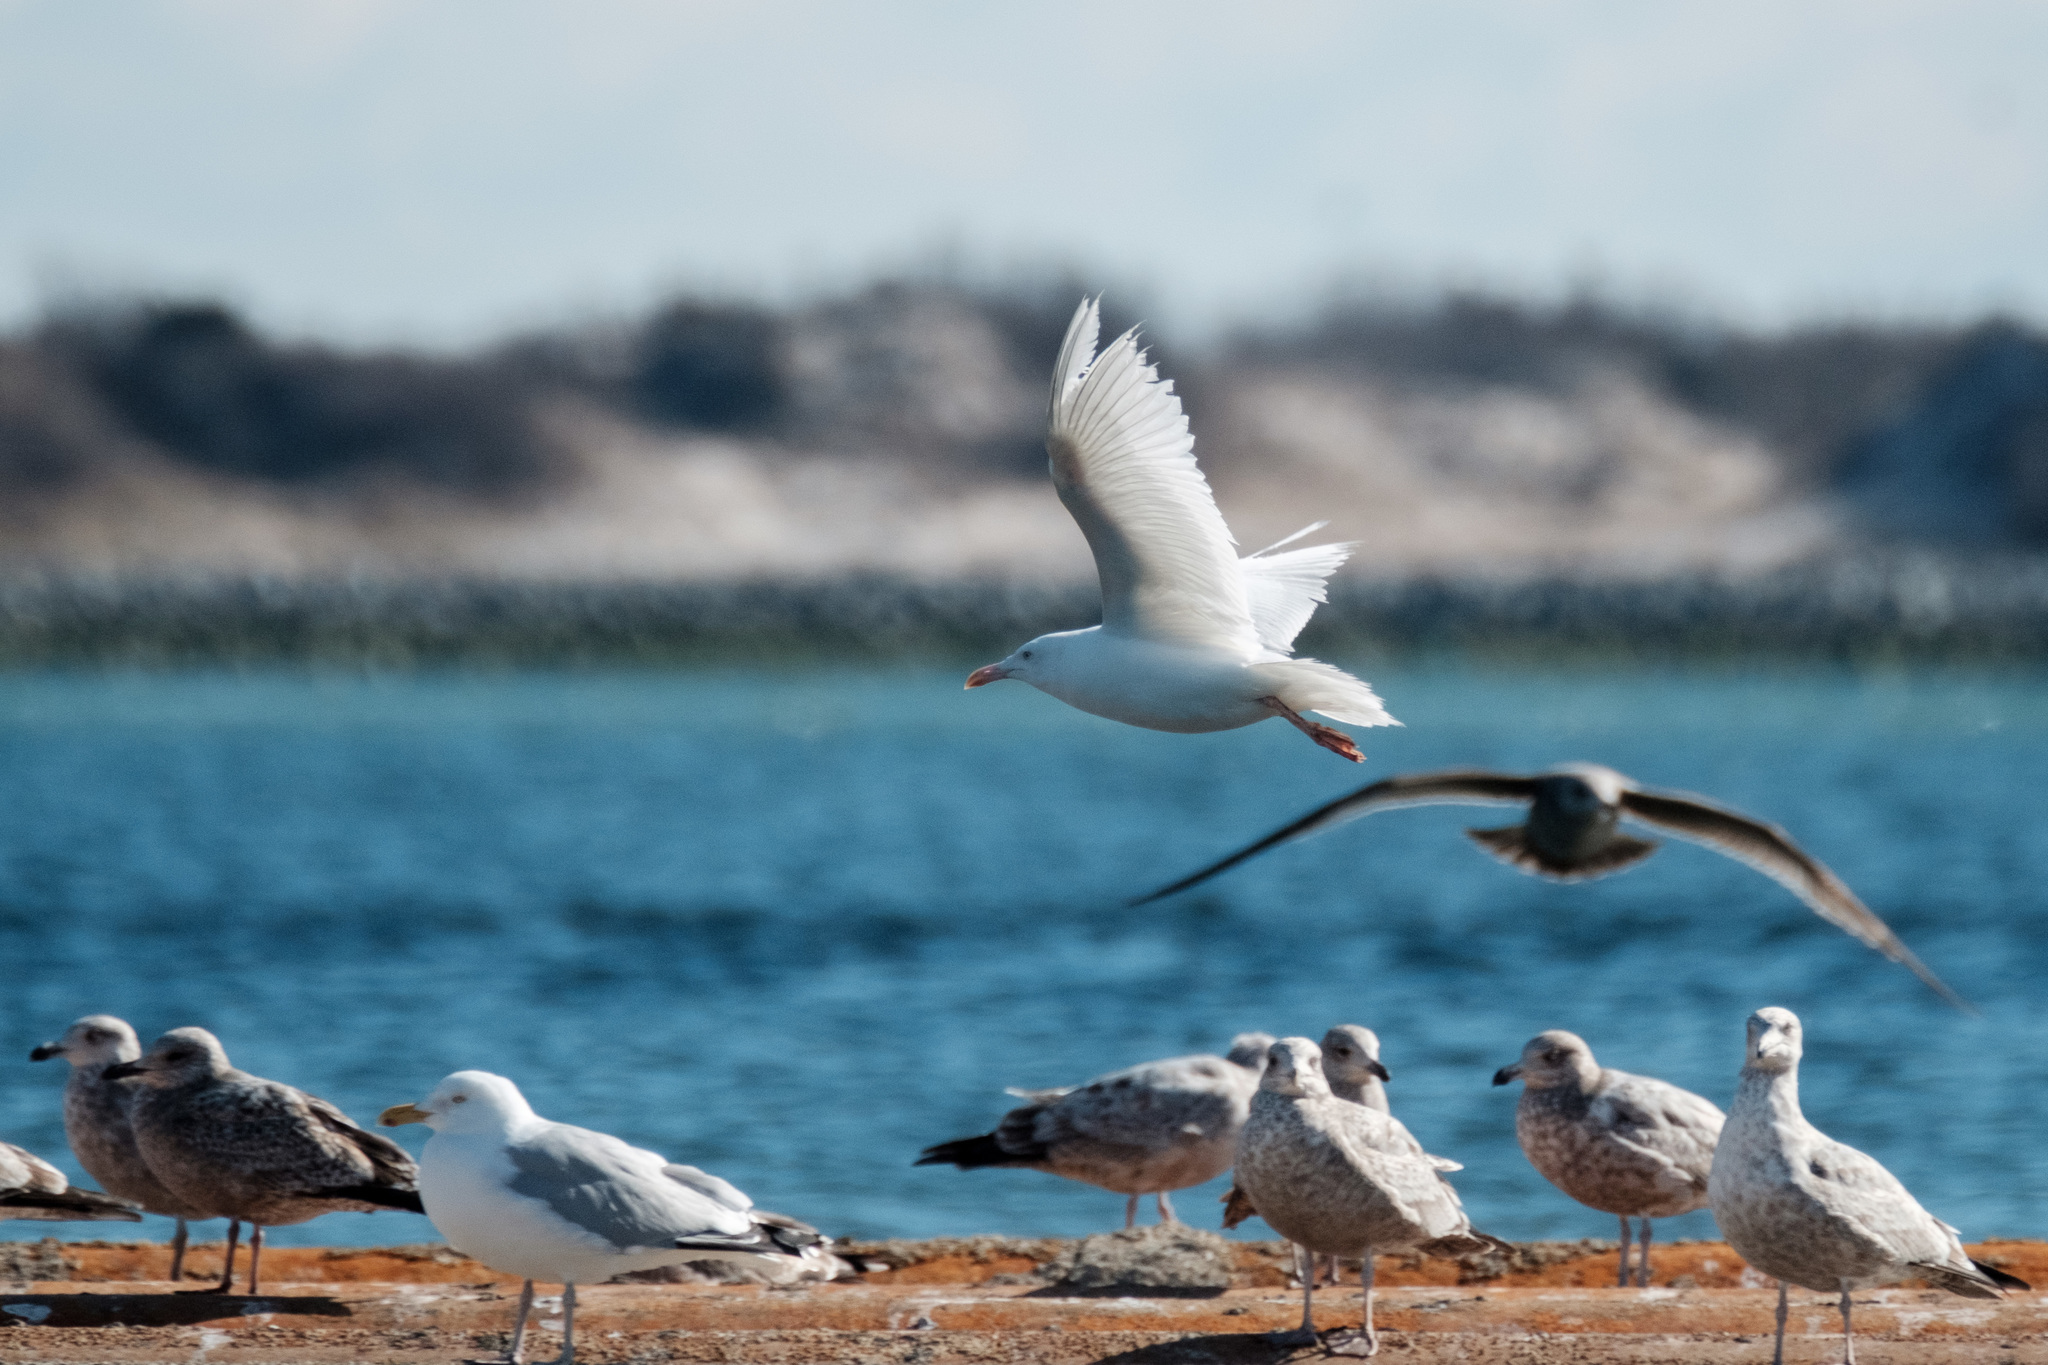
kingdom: Animalia
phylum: Chordata
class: Aves
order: Charadriiformes
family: Laridae
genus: Larus
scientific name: Larus argentatus
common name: Herring gull
